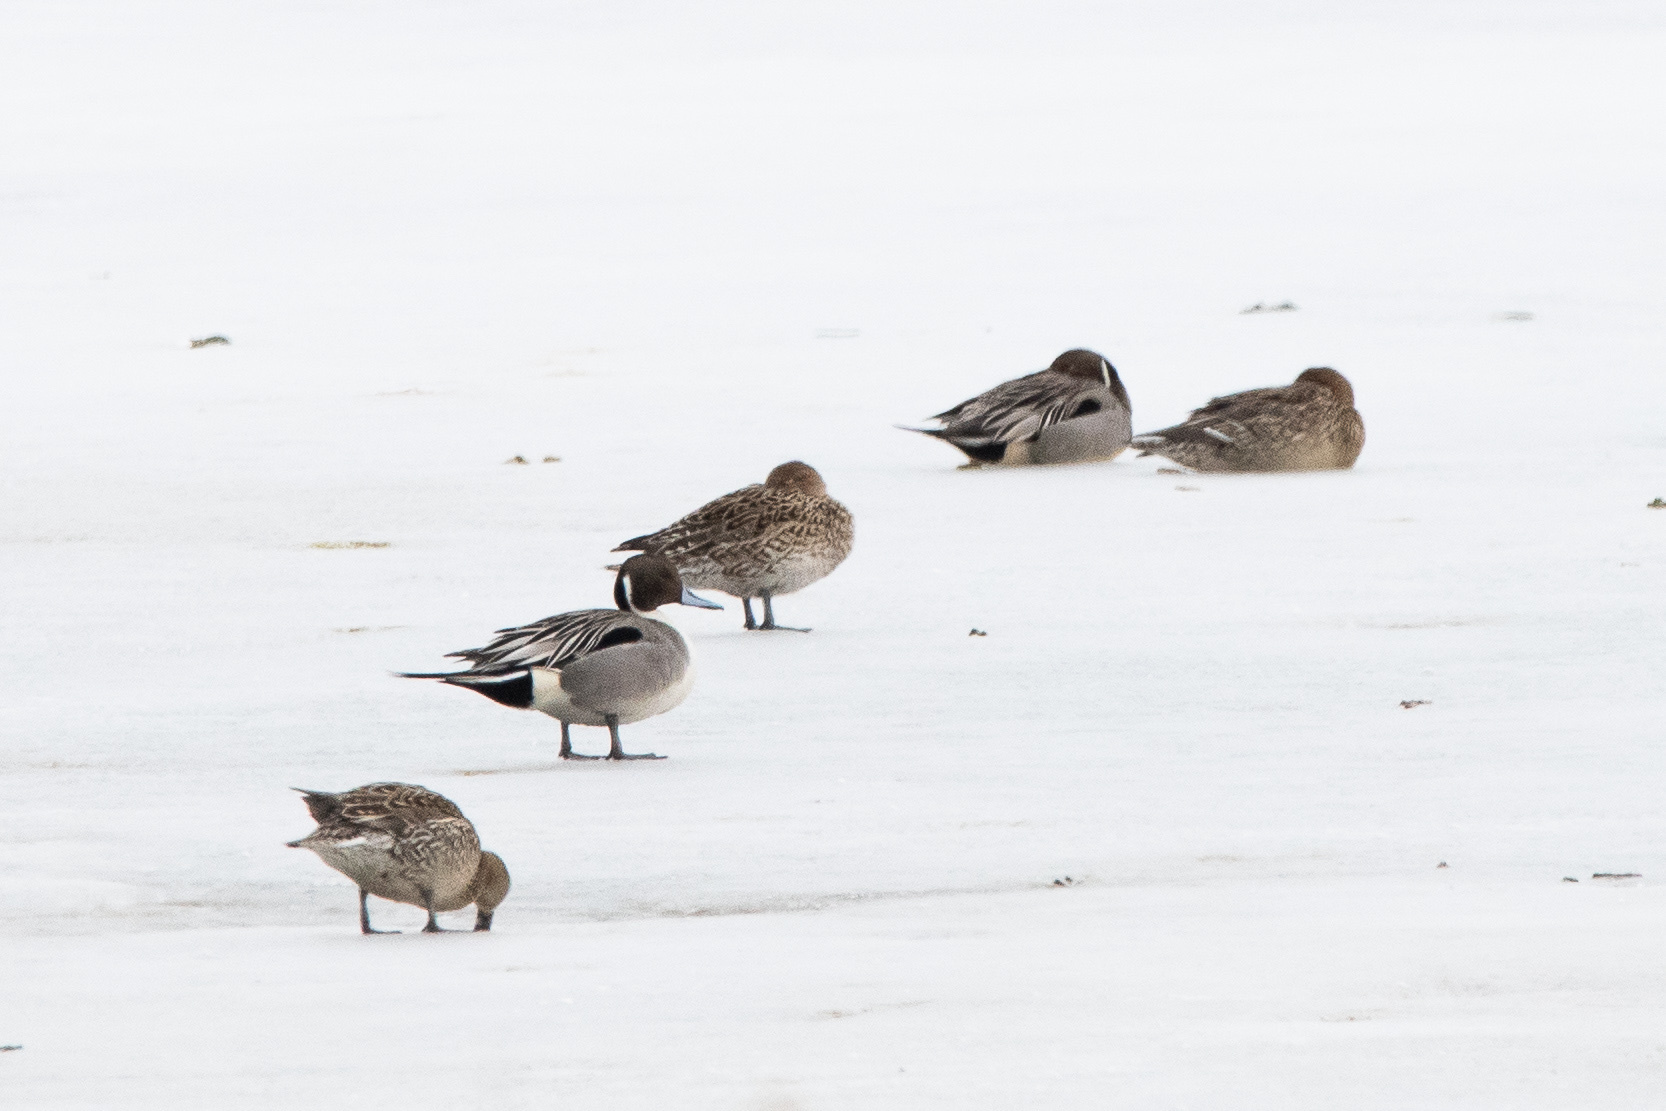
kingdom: Animalia
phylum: Chordata
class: Aves
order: Anseriformes
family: Anatidae
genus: Anas
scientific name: Anas acuta
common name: Northern pintail
